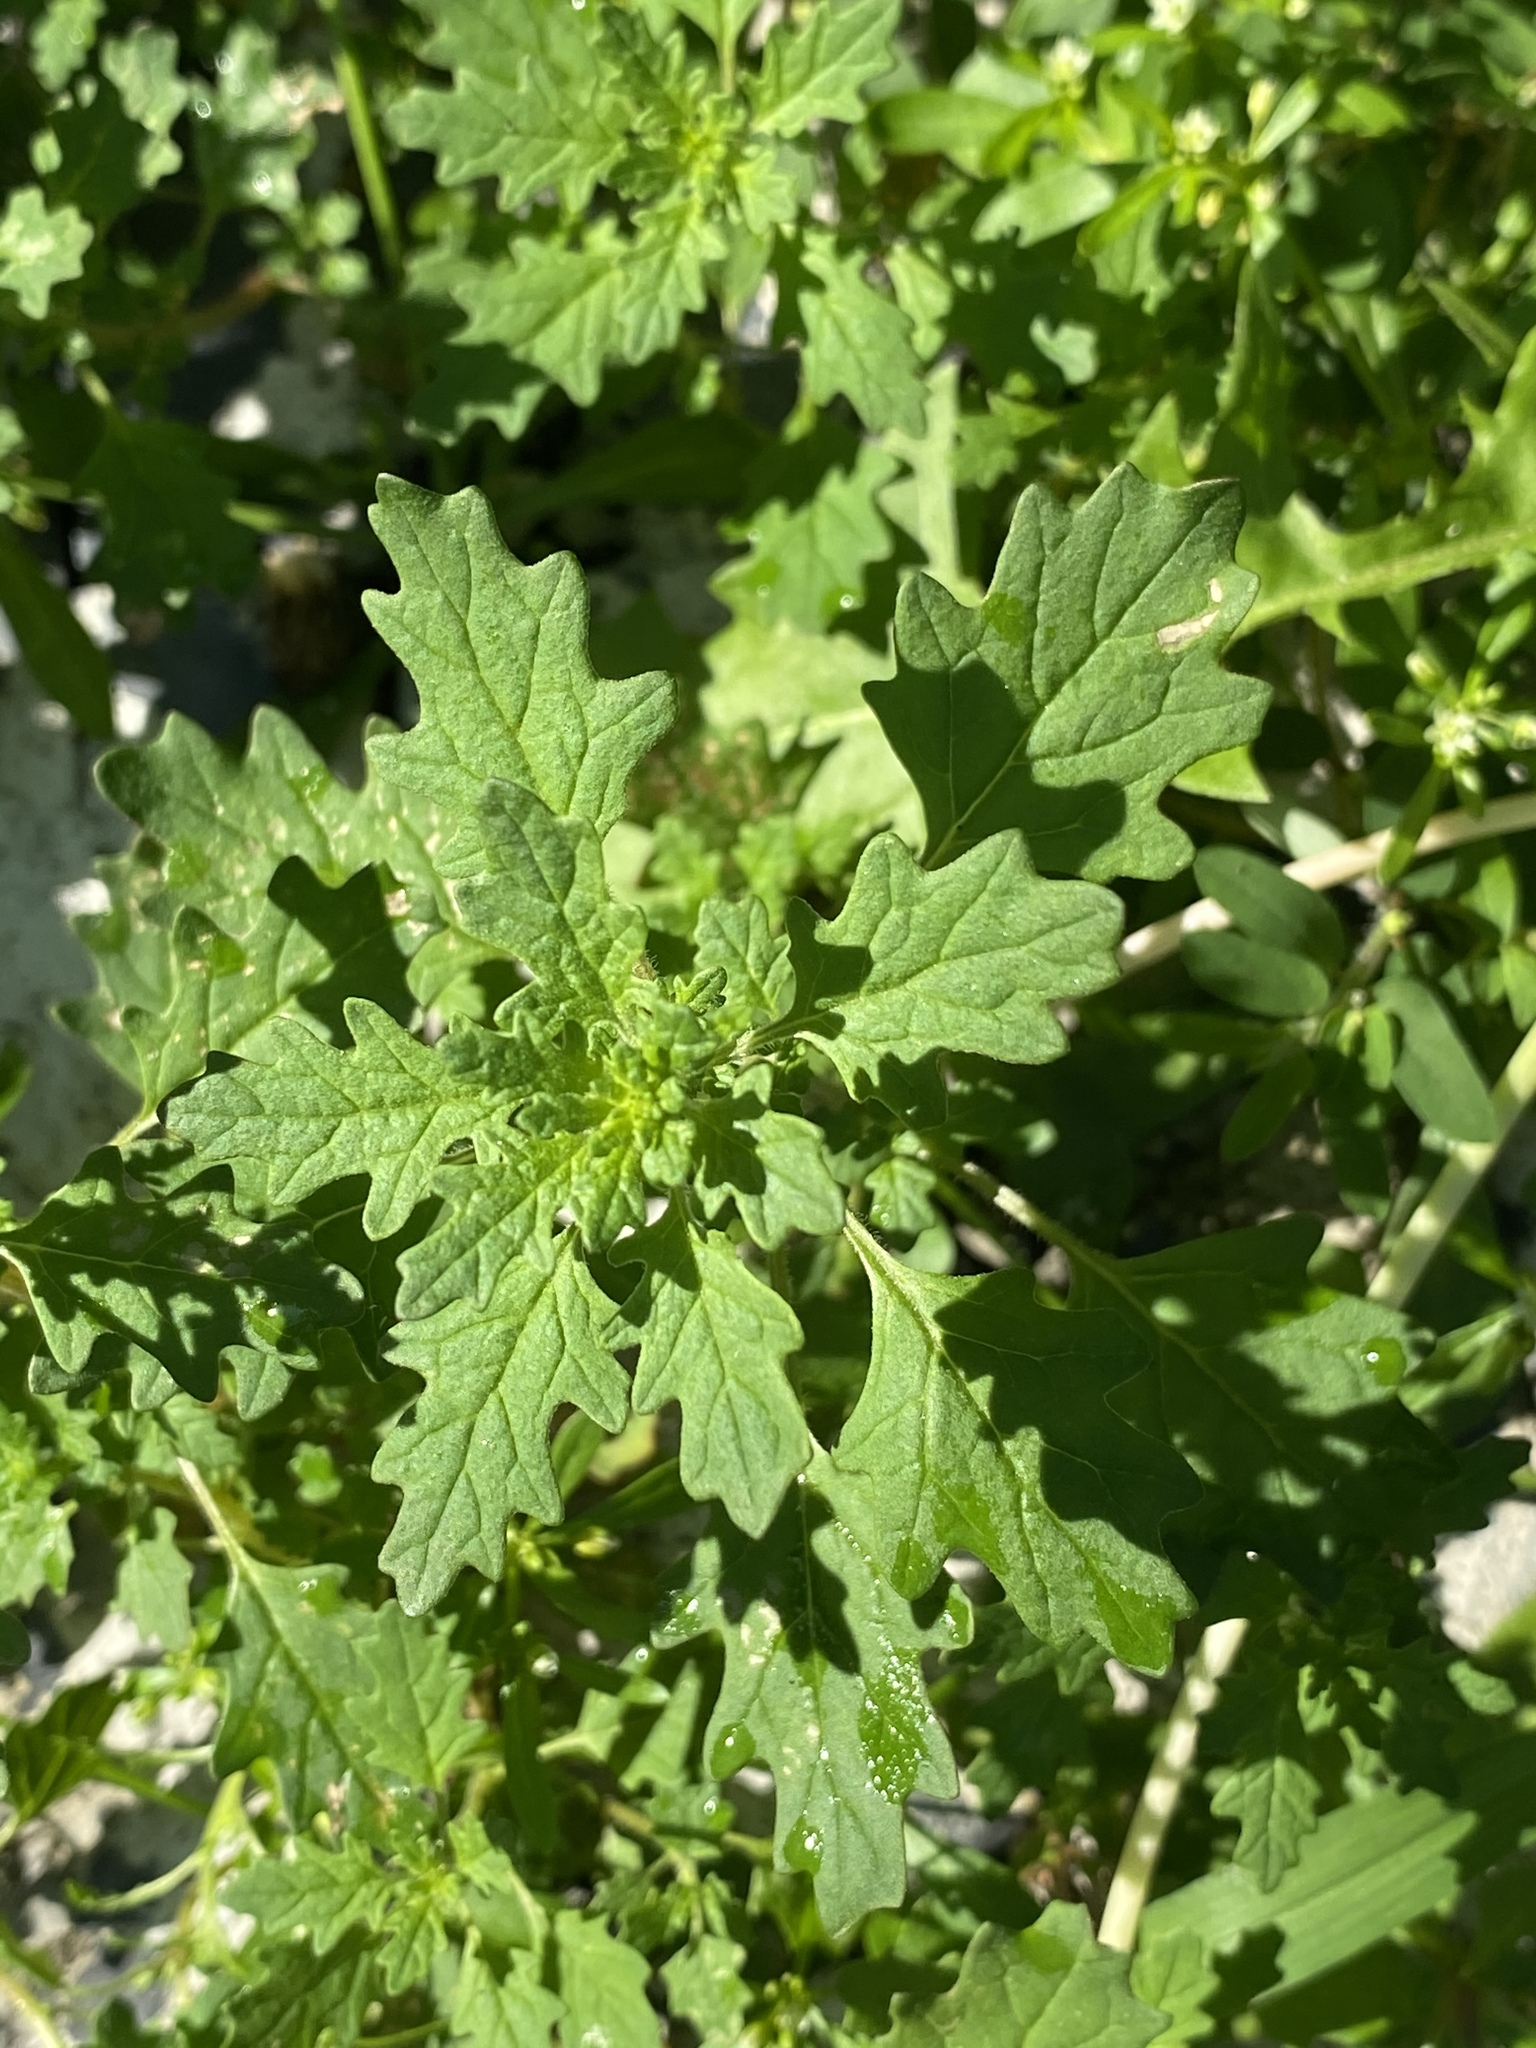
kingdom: Plantae
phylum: Tracheophyta
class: Magnoliopsida
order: Caryophyllales
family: Amaranthaceae
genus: Dysphania
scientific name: Dysphania pumilio
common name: Clammy goosefoot
